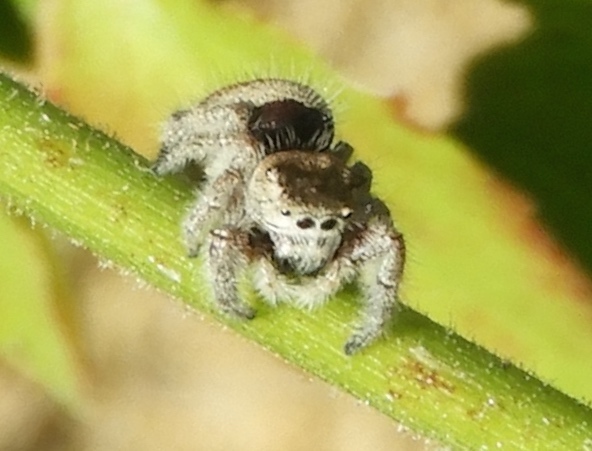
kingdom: Animalia
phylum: Arthropoda
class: Arachnida
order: Araneae
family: Salticidae
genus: Phidippus
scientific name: Phidippus pacosauritus
